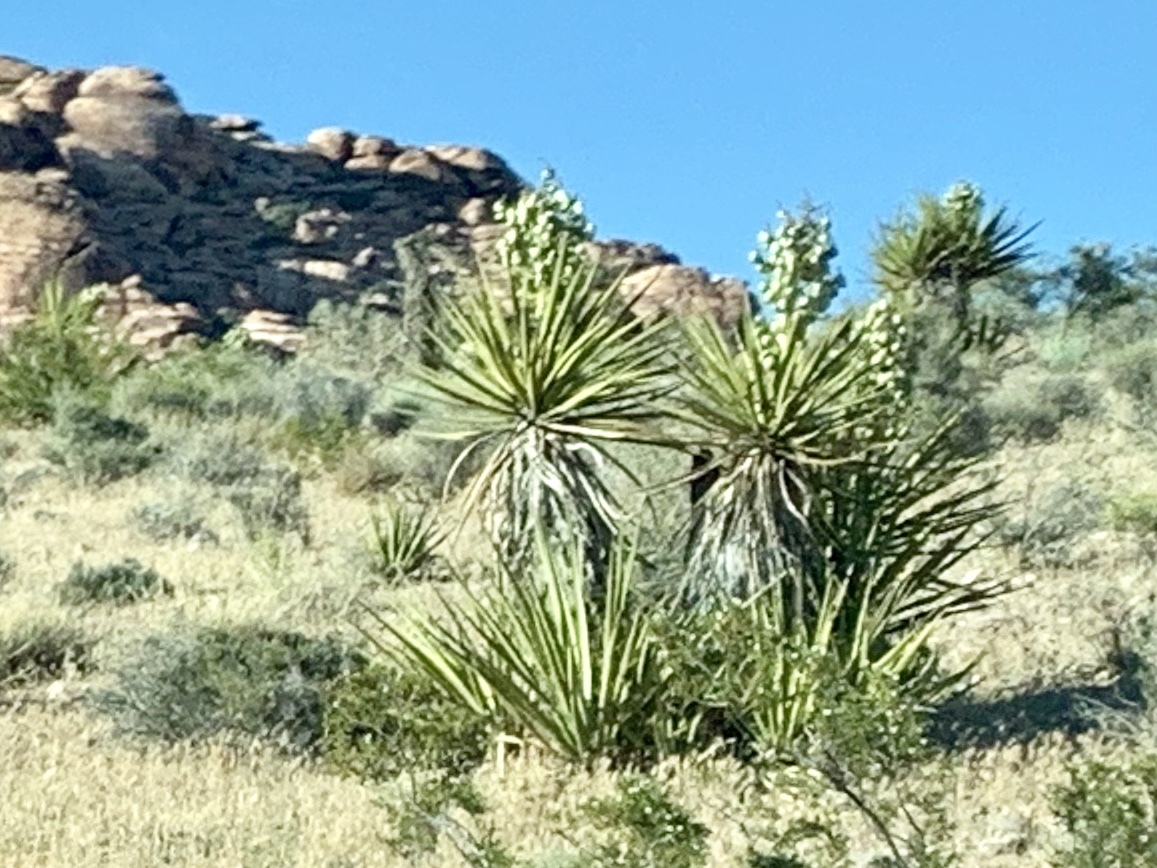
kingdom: Plantae
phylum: Tracheophyta
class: Liliopsida
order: Asparagales
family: Asparagaceae
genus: Yucca
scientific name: Yucca schidigera
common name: Mojave yucca
